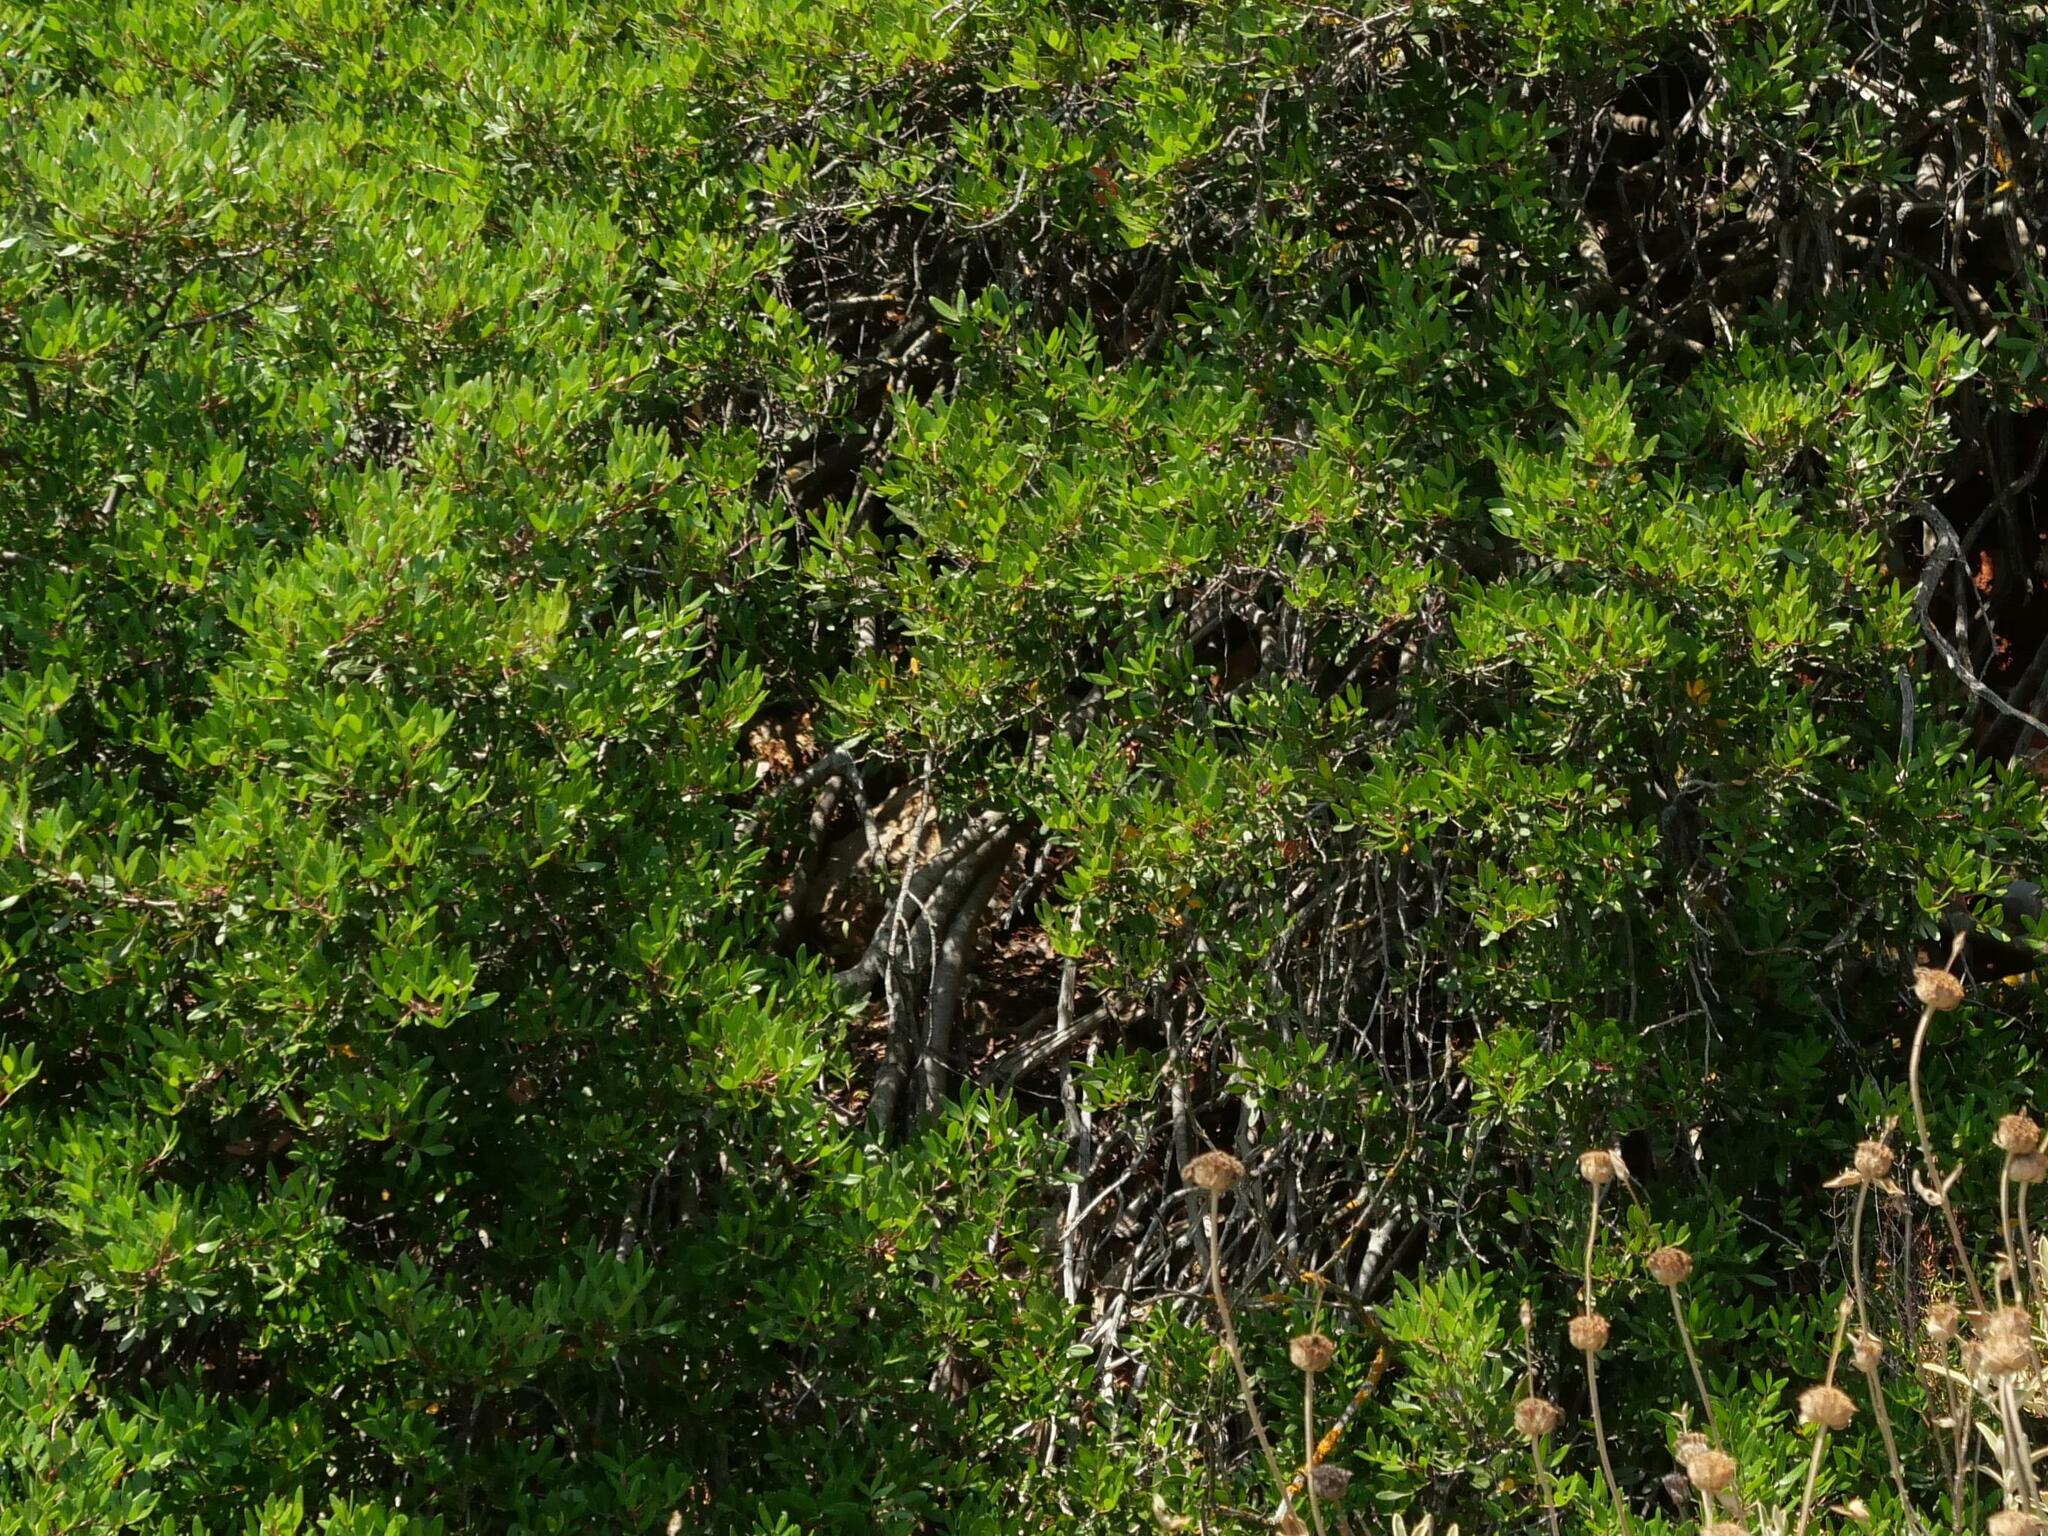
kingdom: Plantae
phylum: Tracheophyta
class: Magnoliopsida
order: Sapindales
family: Anacardiaceae
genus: Pistacia
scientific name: Pistacia lentiscus
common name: Lentisk
